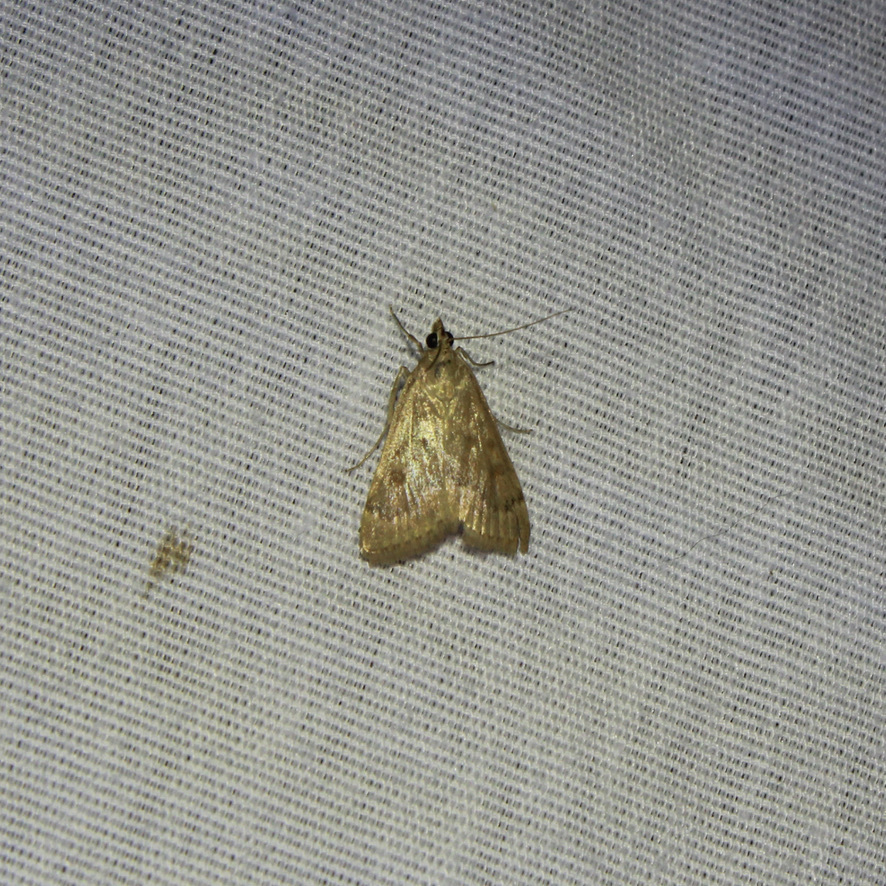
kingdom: Animalia
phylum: Arthropoda
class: Insecta
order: Lepidoptera
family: Crambidae
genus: Achyra
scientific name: Achyra rantalis
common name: Garden webworm
